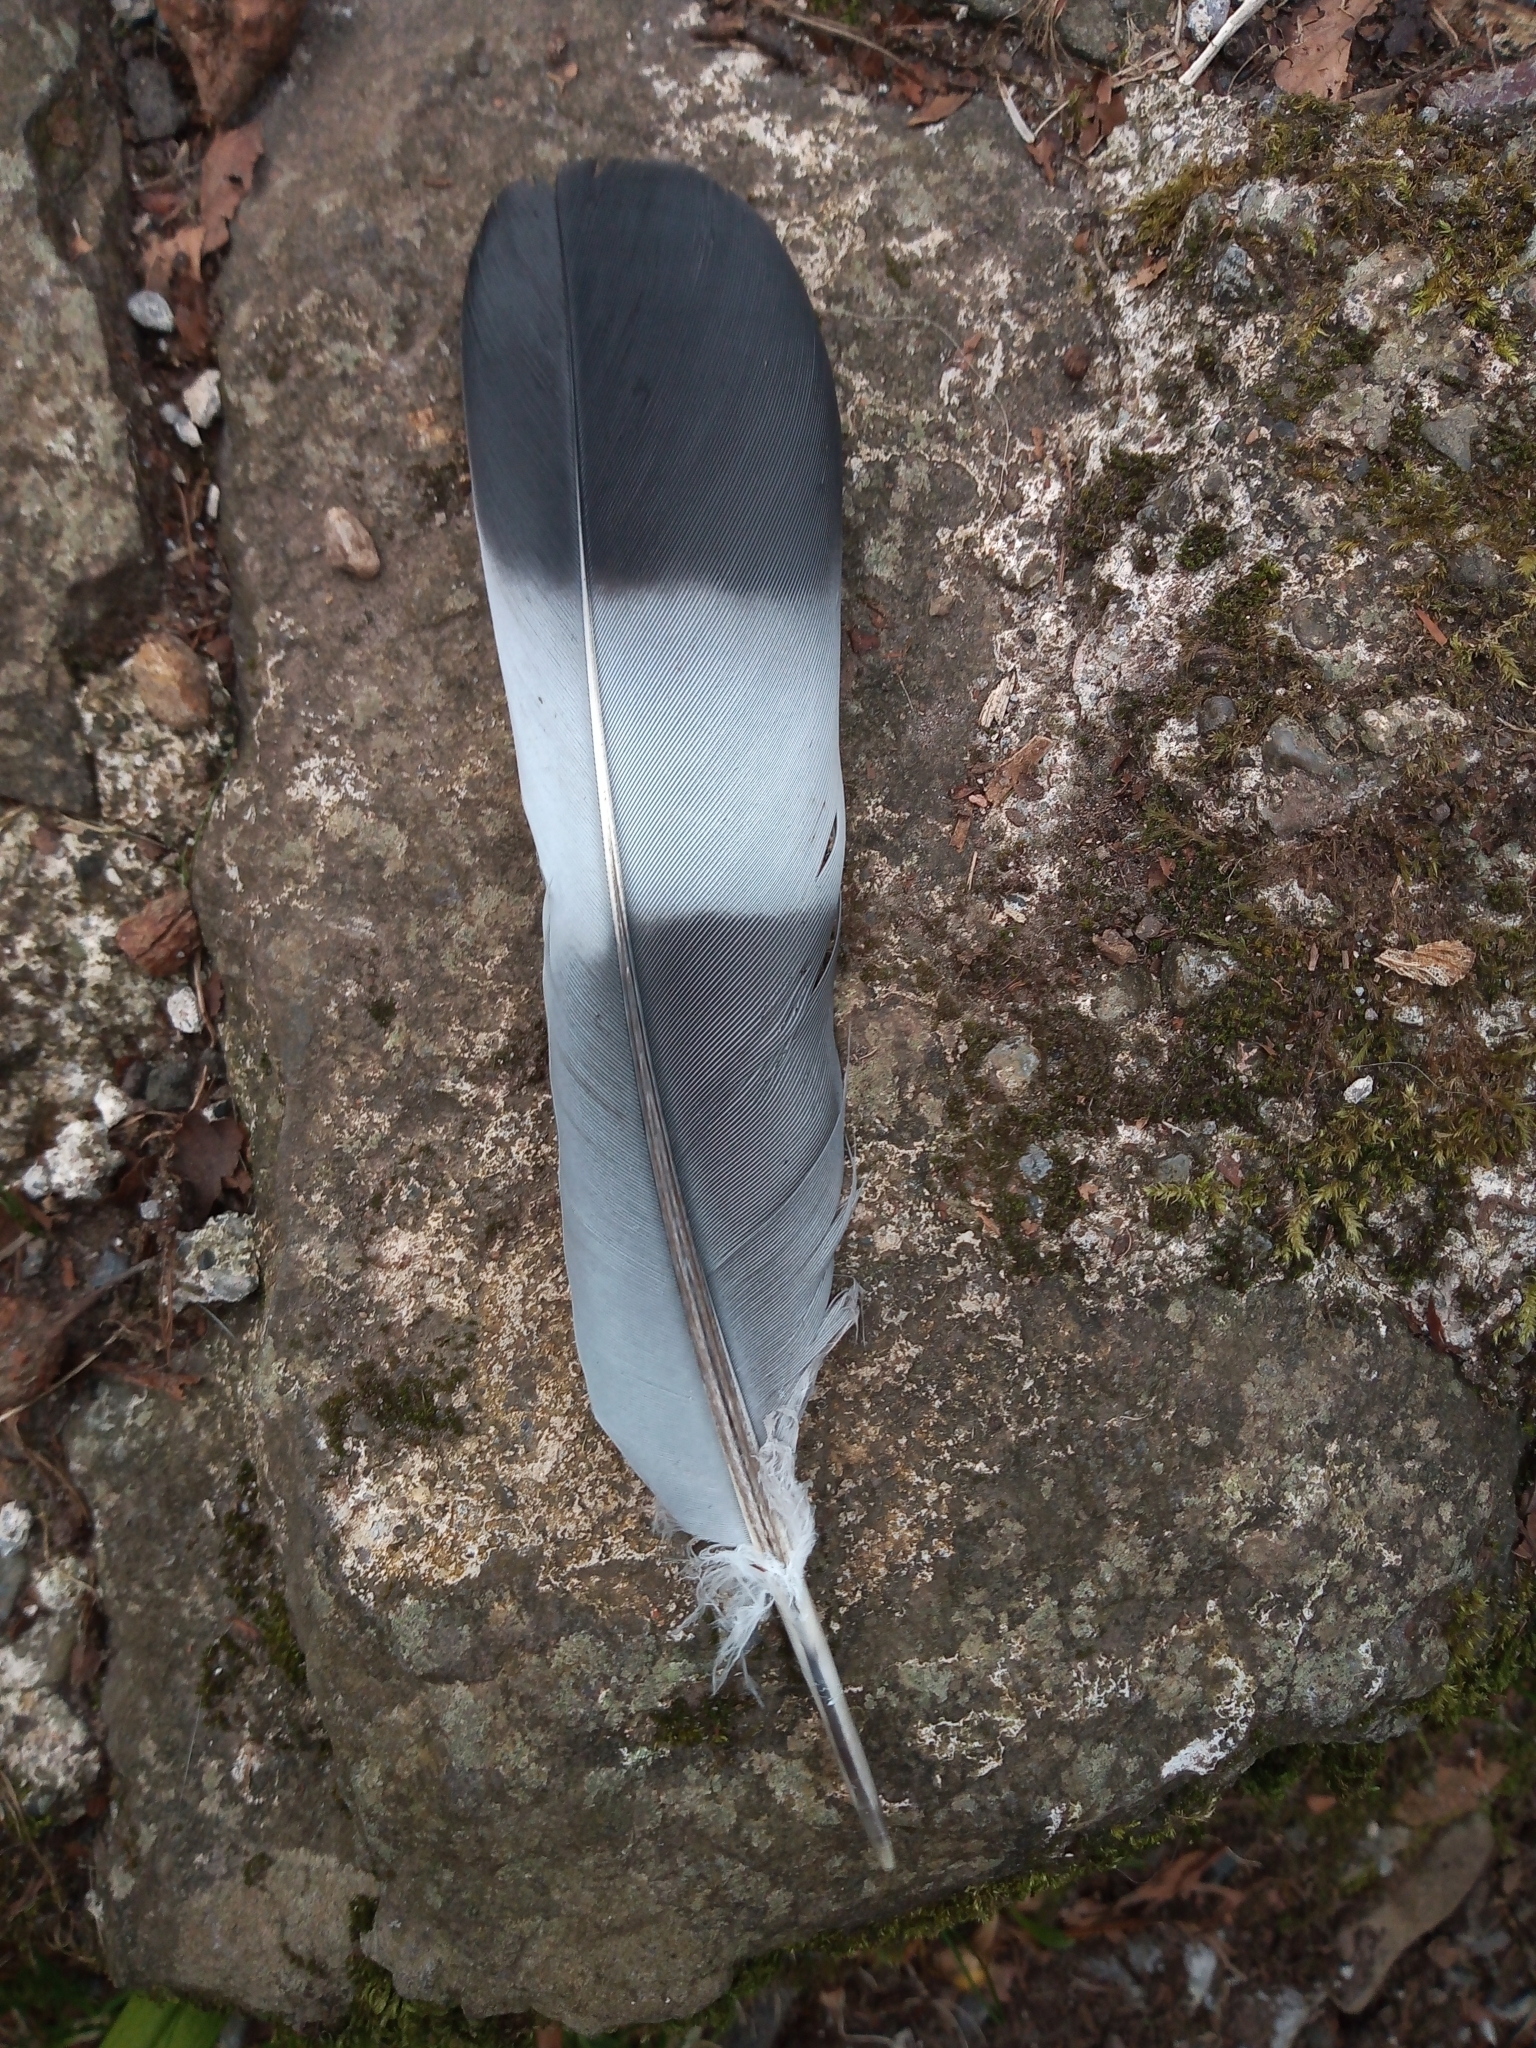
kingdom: Animalia
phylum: Chordata
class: Aves
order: Columbiformes
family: Columbidae
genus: Columba
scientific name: Columba palumbus
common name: Common wood pigeon
